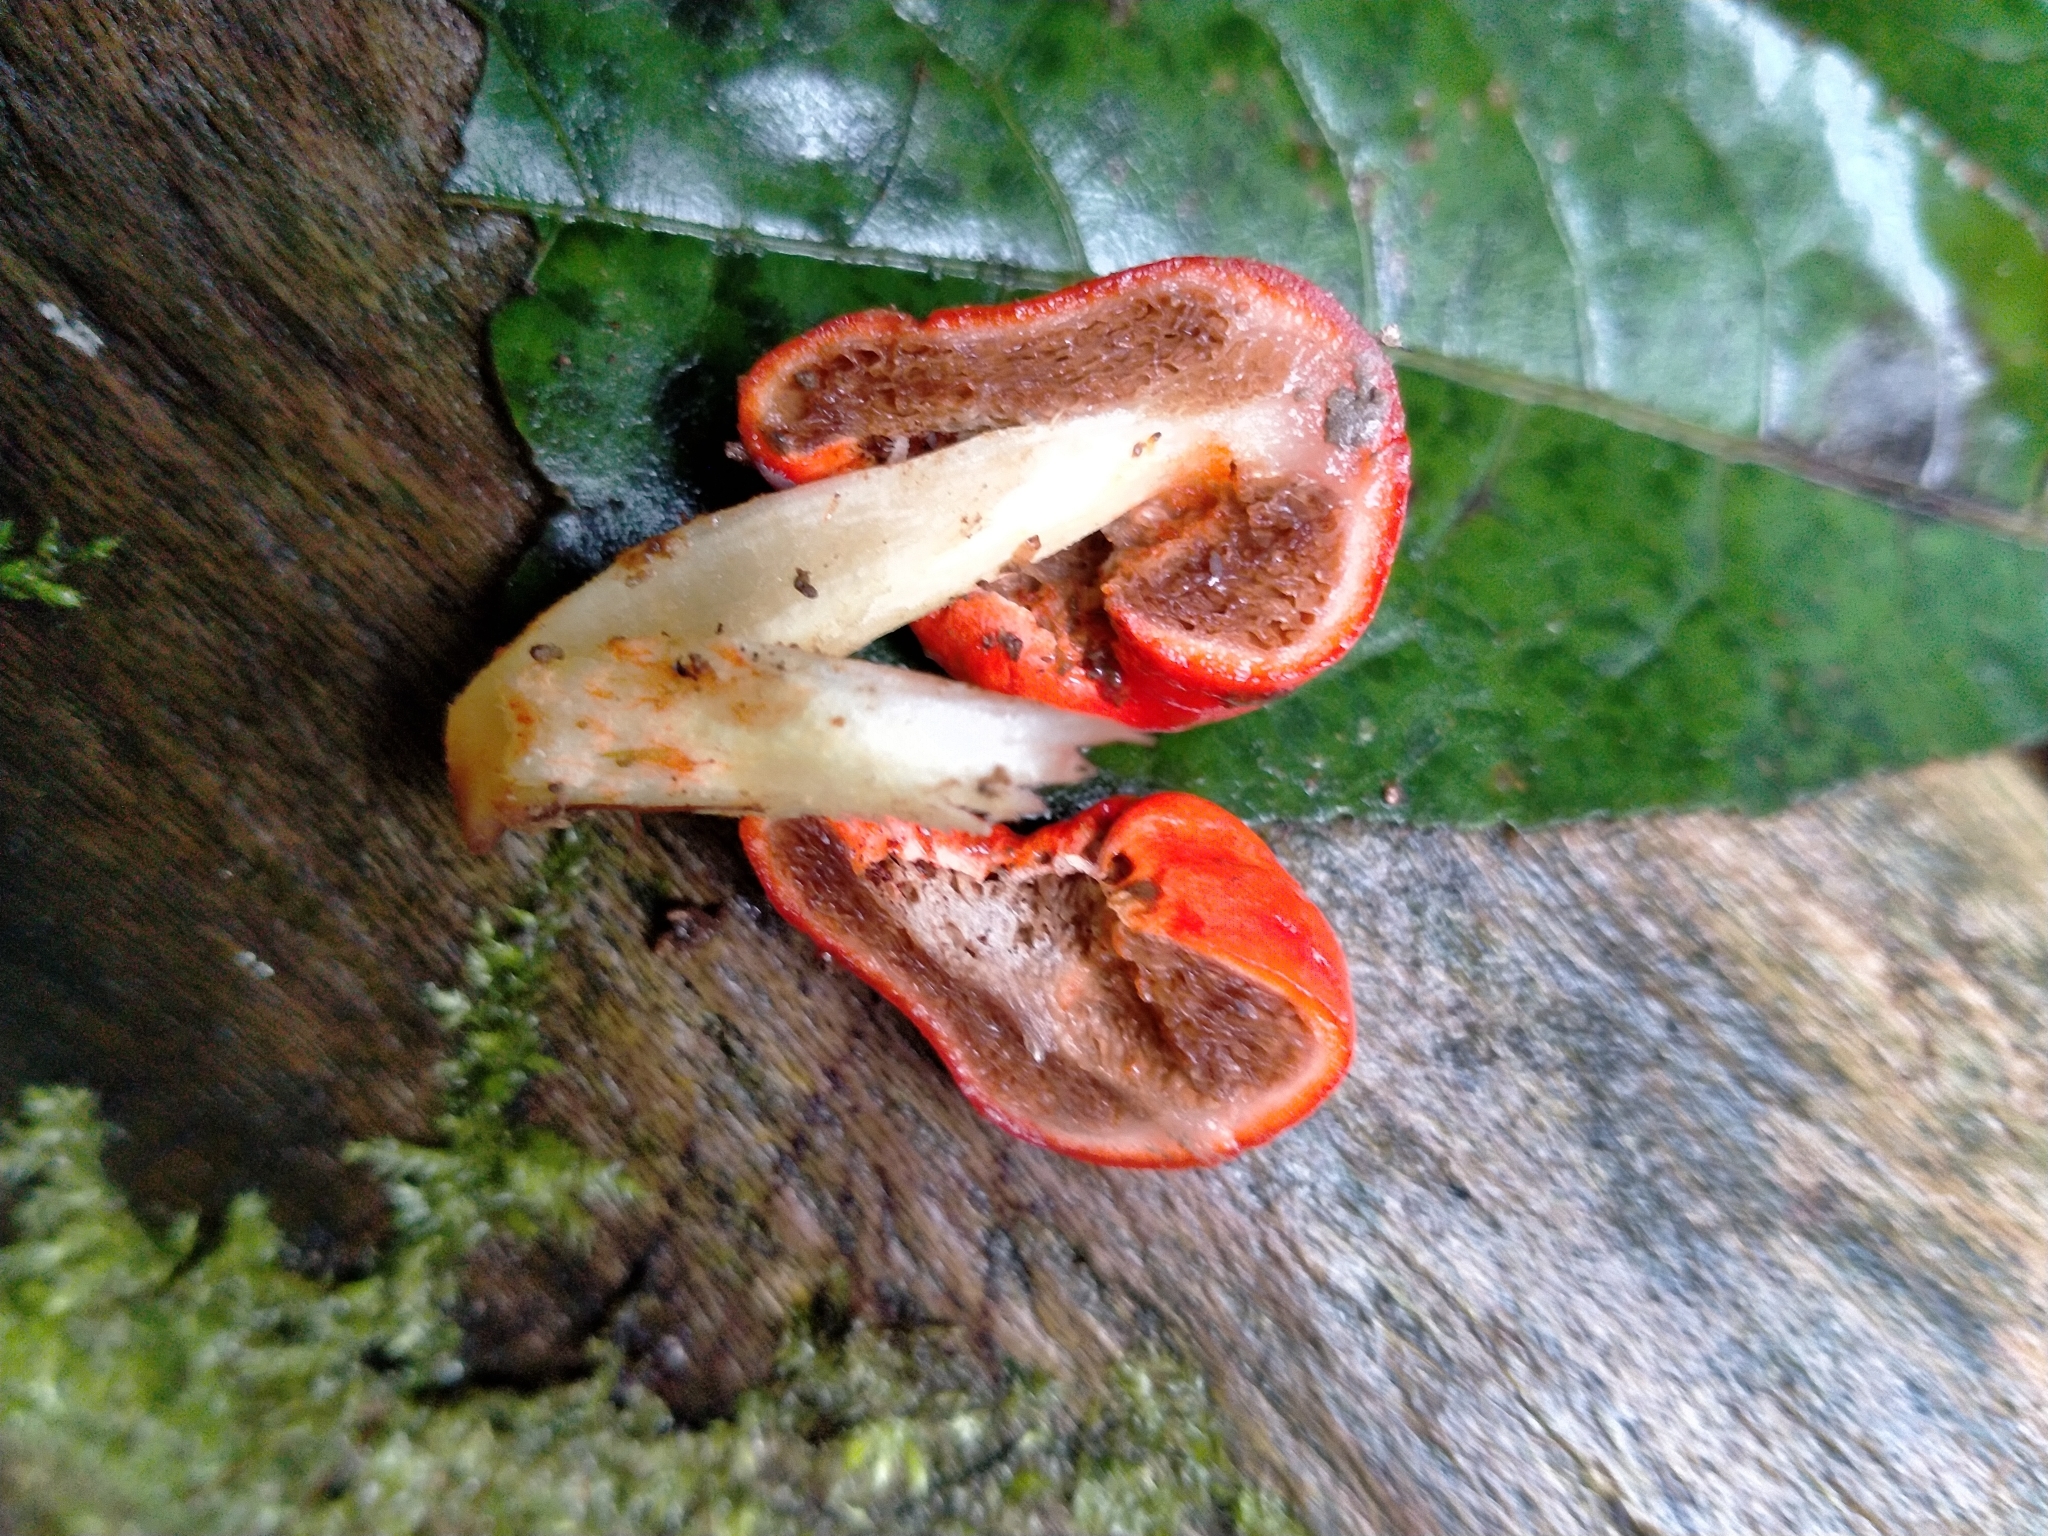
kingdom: Fungi
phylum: Basidiomycota
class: Agaricomycetes
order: Agaricales
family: Strophariaceae
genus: Leratiomyces
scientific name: Leratiomyces erythrocephalus
